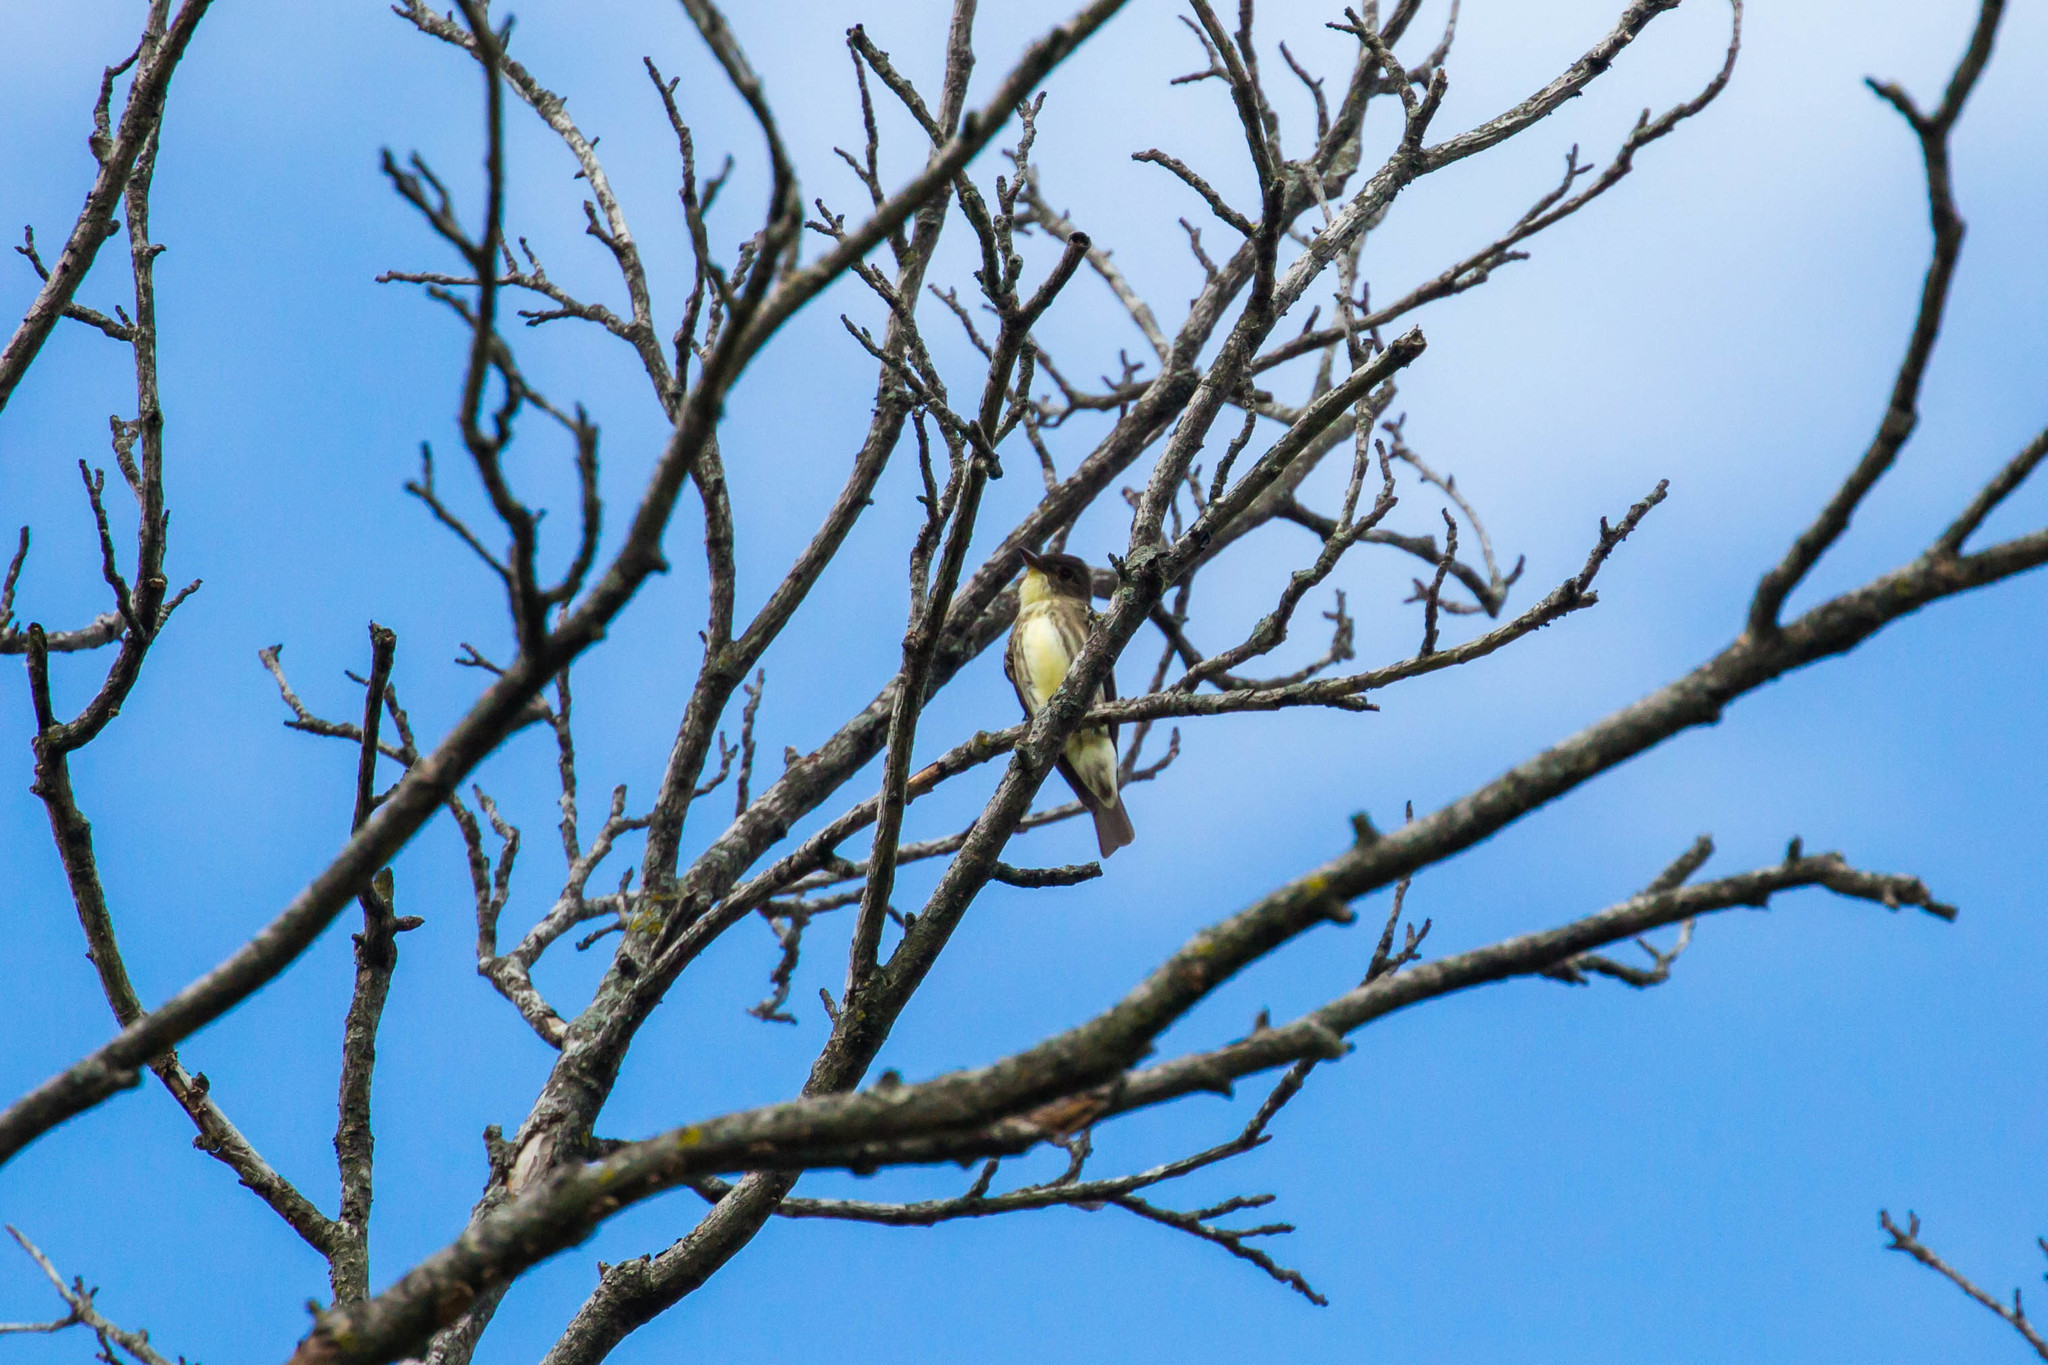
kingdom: Animalia
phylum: Chordata
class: Aves
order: Passeriformes
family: Tyrannidae
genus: Contopus
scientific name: Contopus cooperi
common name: Olive-sided flycatcher
